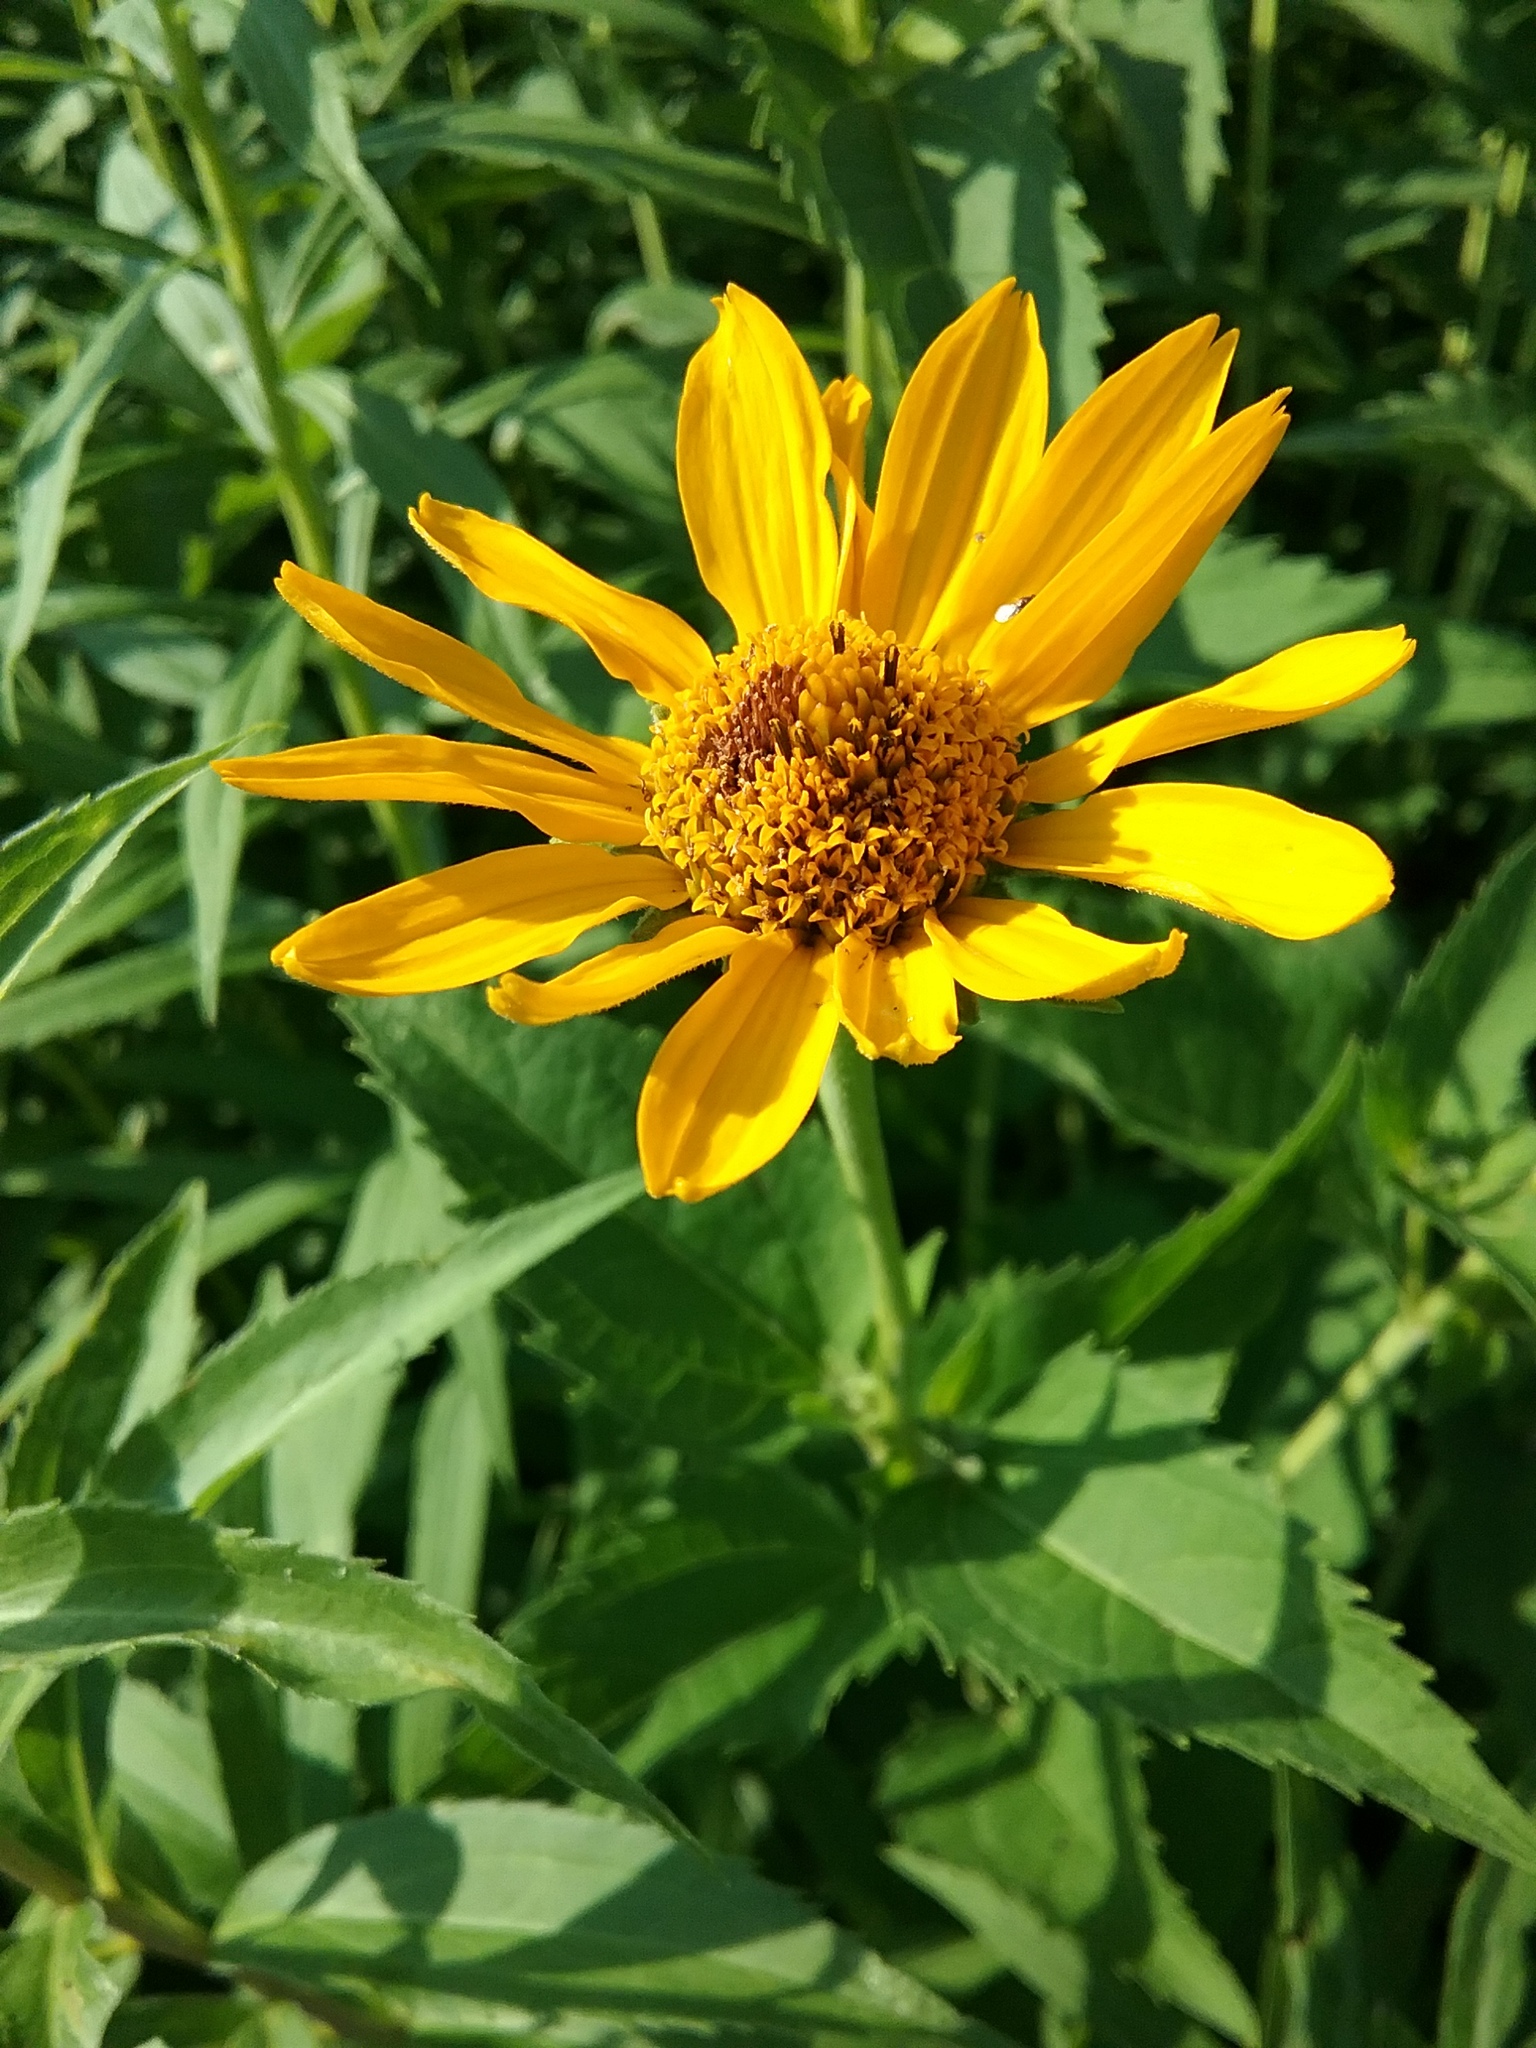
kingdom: Plantae
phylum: Tracheophyta
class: Magnoliopsida
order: Asterales
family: Asteraceae
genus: Heliopsis
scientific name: Heliopsis helianthoides
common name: False sunflower
